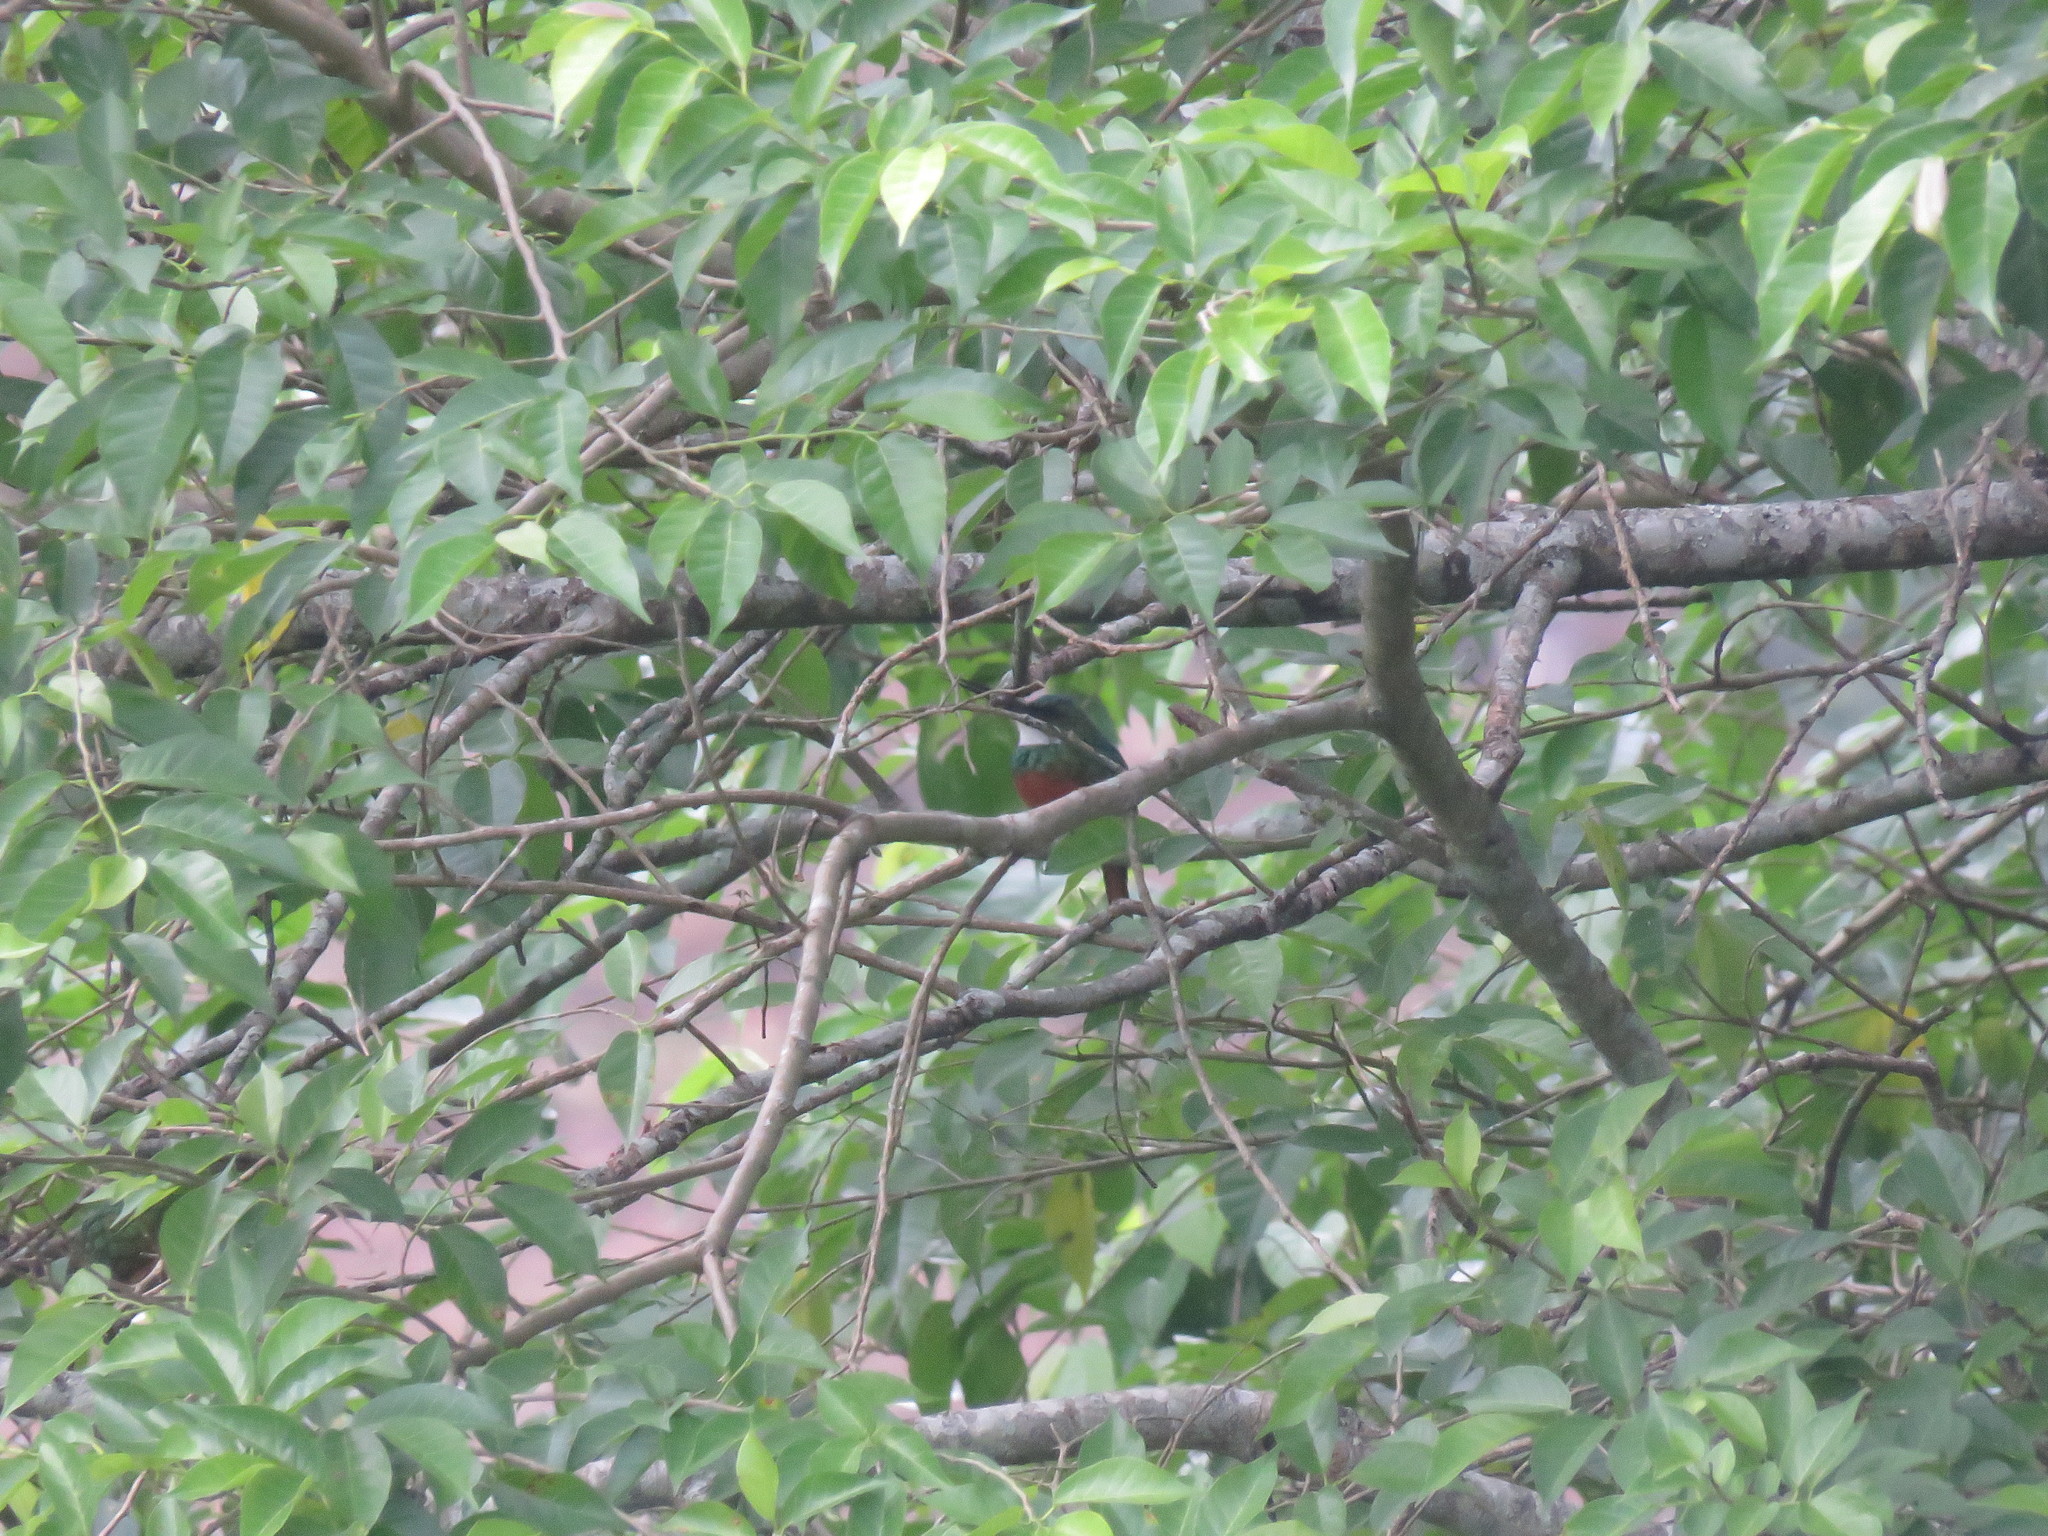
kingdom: Animalia
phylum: Chordata
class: Aves
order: Piciformes
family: Galbulidae
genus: Galbula
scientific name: Galbula ruficauda
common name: Rufous-tailed jacamar
